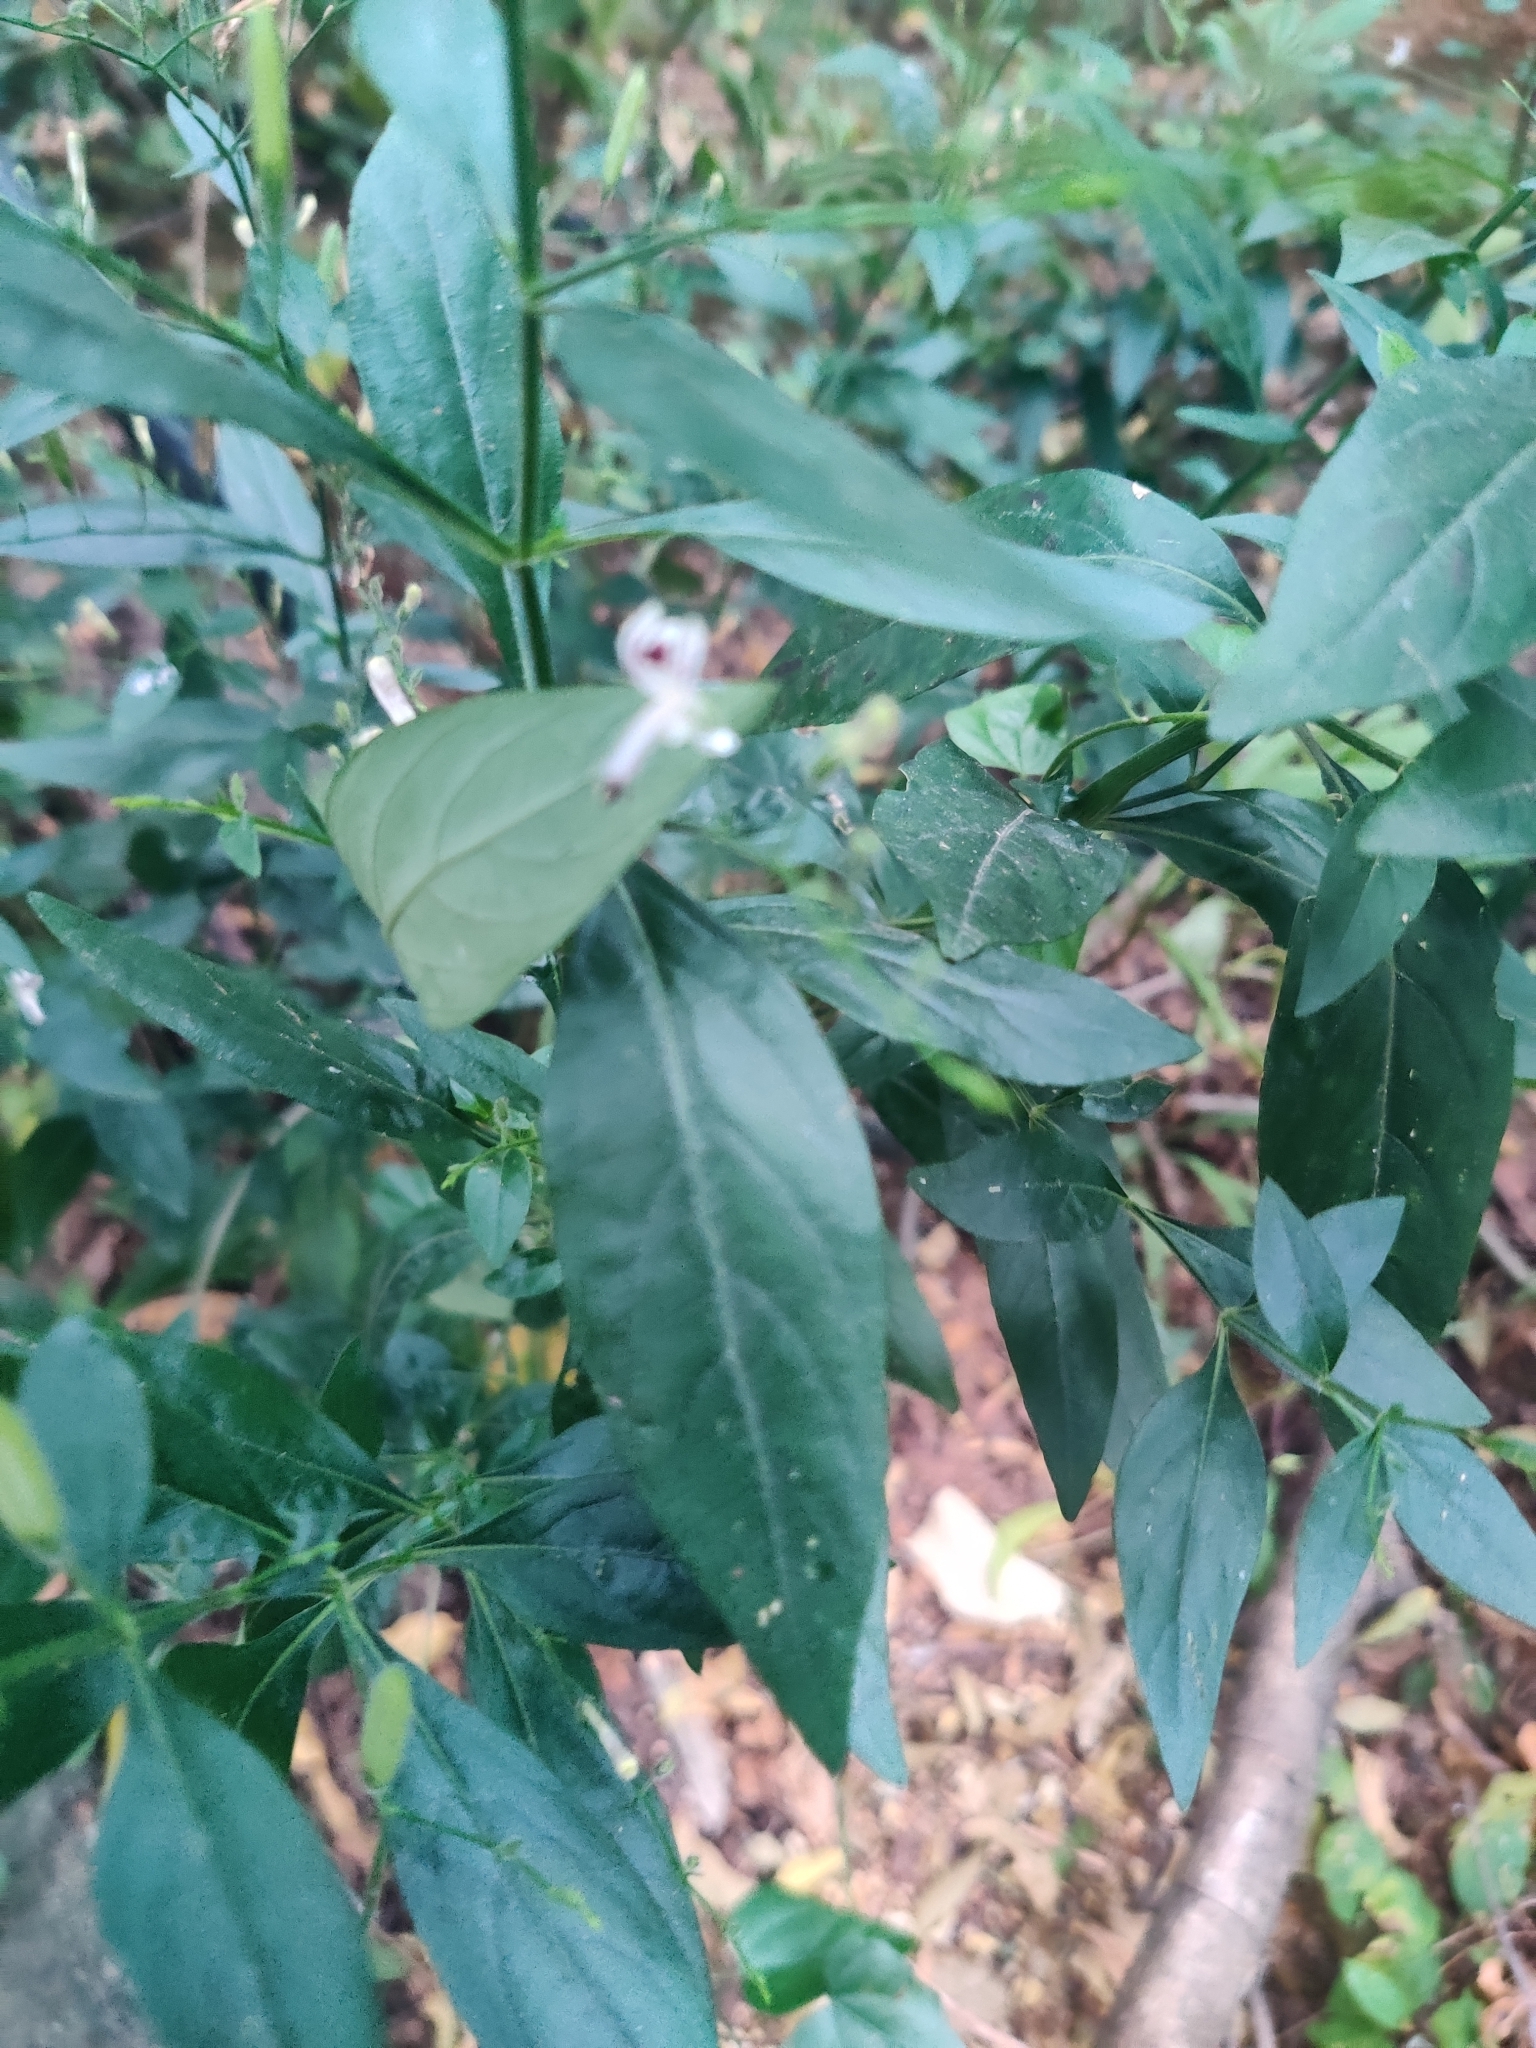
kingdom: Plantae
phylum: Tracheophyta
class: Magnoliopsida
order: Lamiales
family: Acanthaceae
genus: Andrographis
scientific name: Andrographis paniculata
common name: Green chireta
